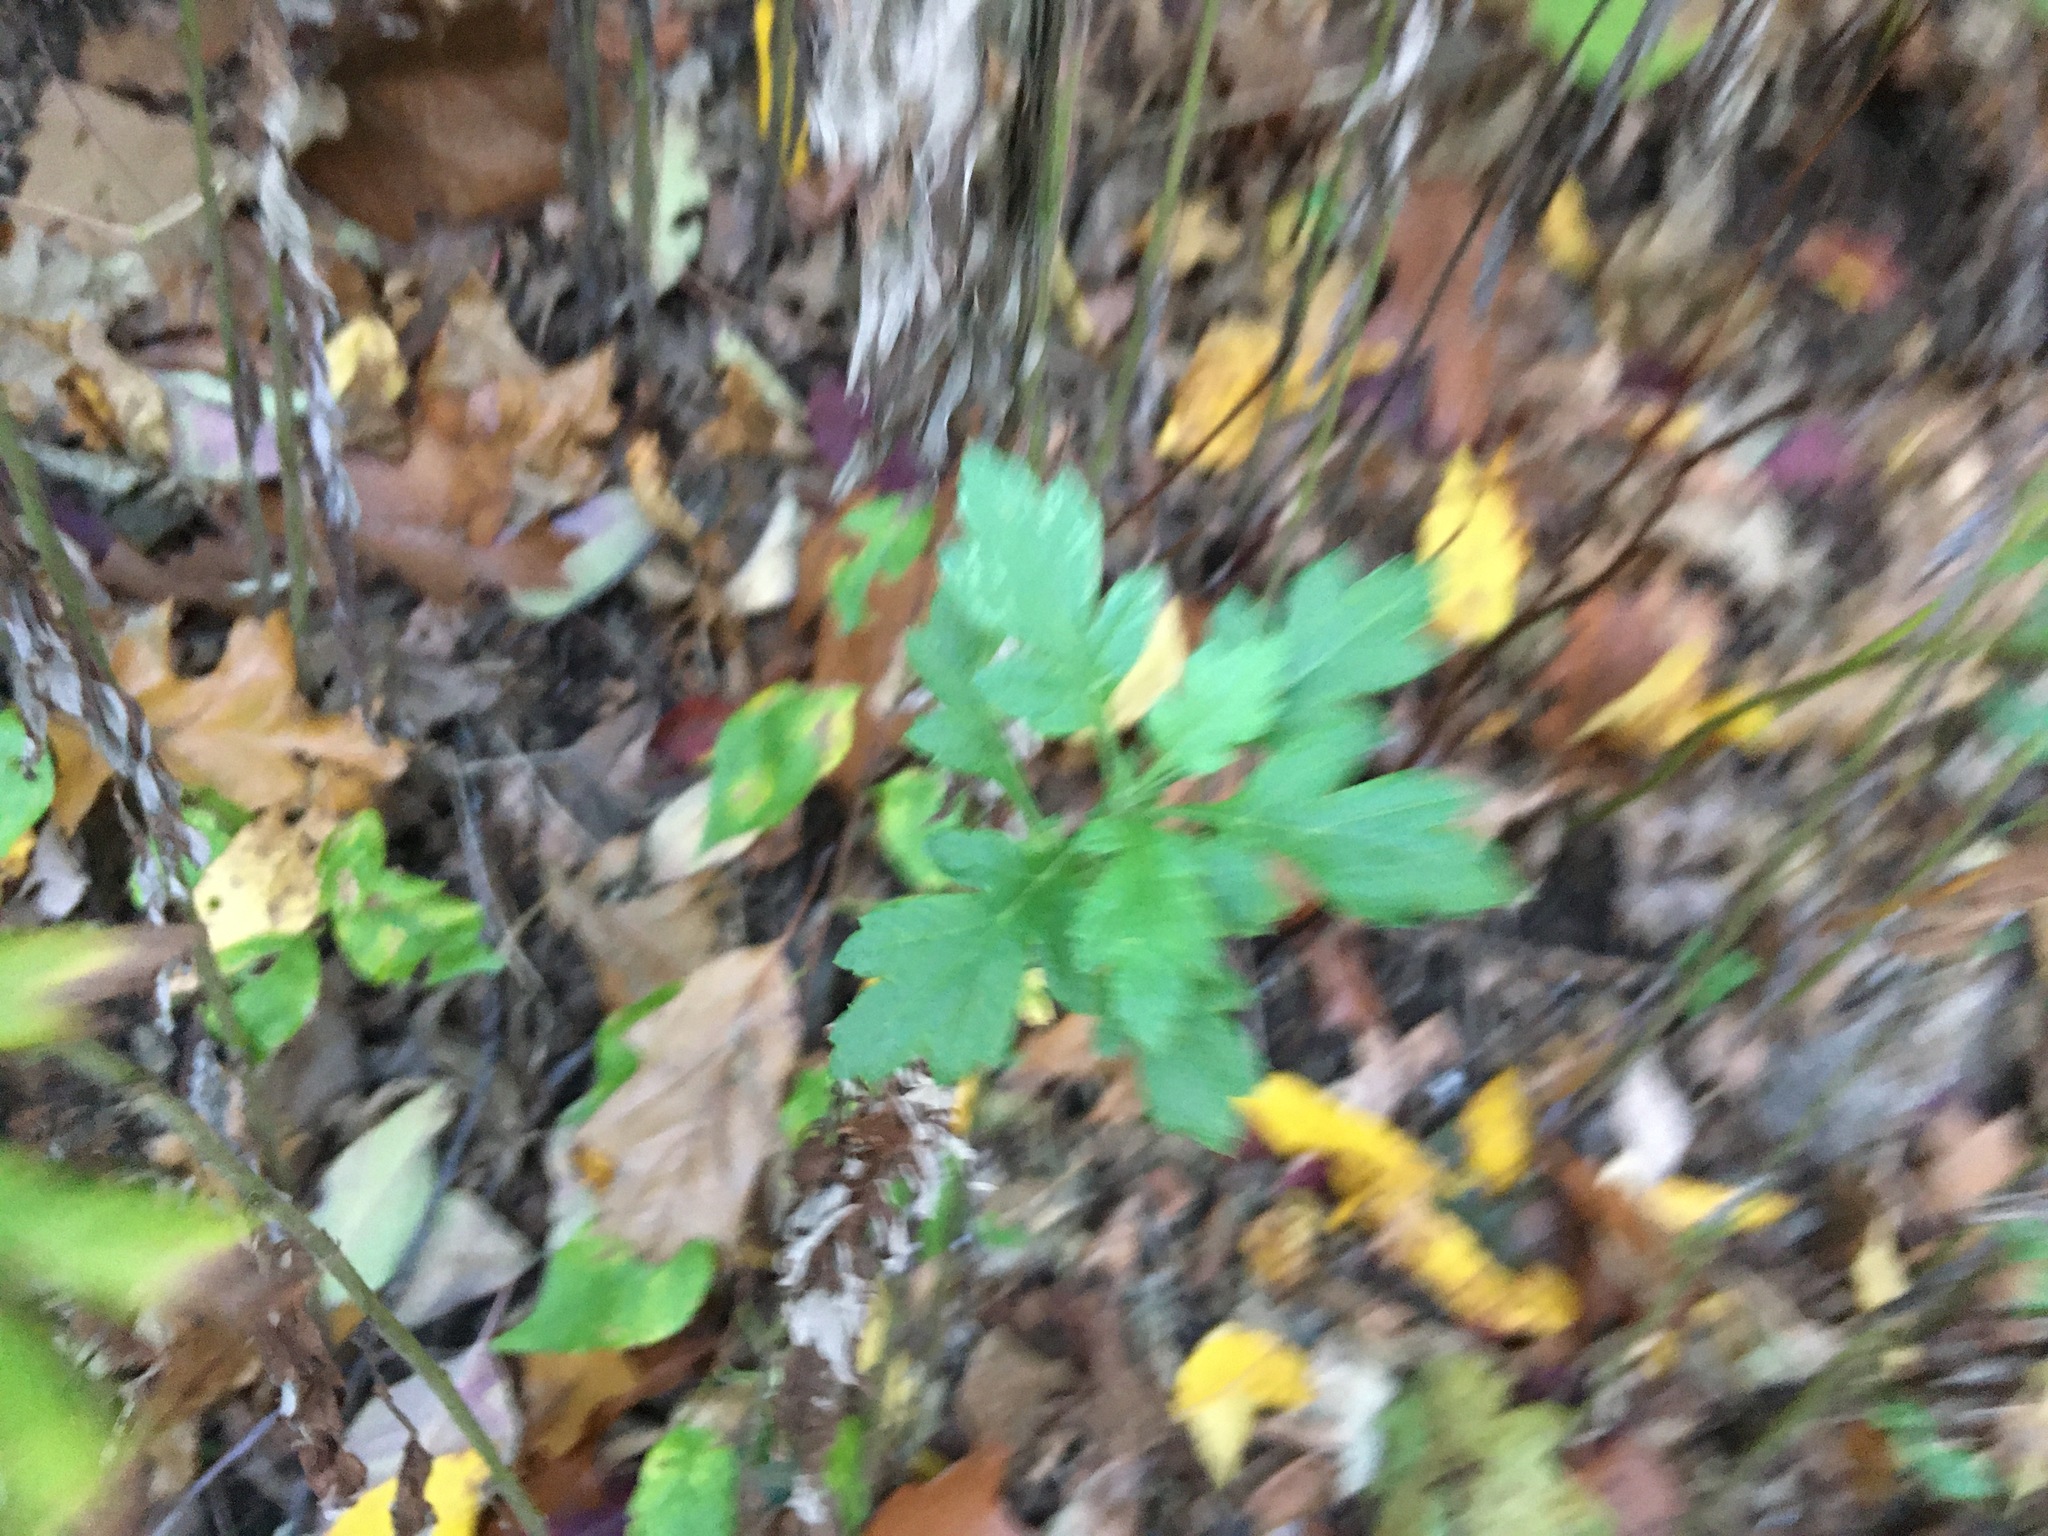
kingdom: Plantae
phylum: Tracheophyta
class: Magnoliopsida
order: Asterales
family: Asteraceae
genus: Artemisia
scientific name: Artemisia vulgaris
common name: Mugwort
